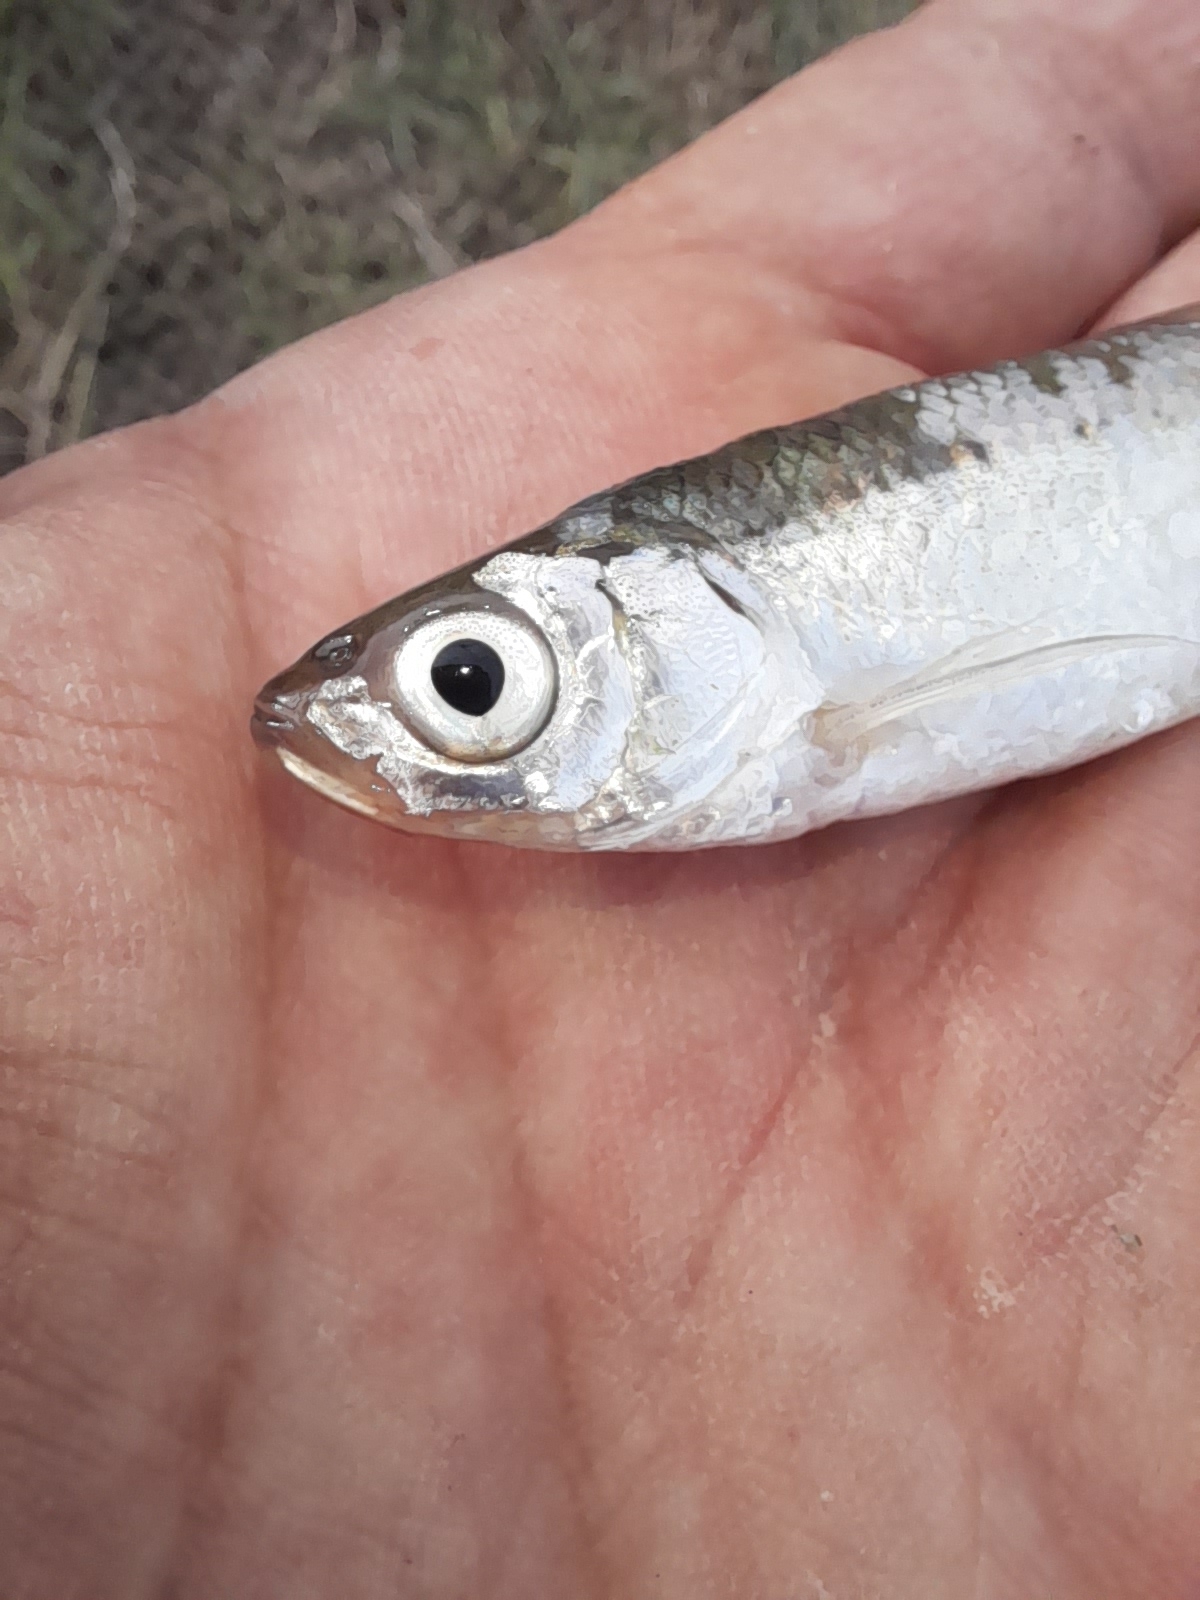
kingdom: Animalia
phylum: Chordata
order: Cypriniformes
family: Cyprinidae
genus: Alburnus
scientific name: Alburnus arborella
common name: Alborella
